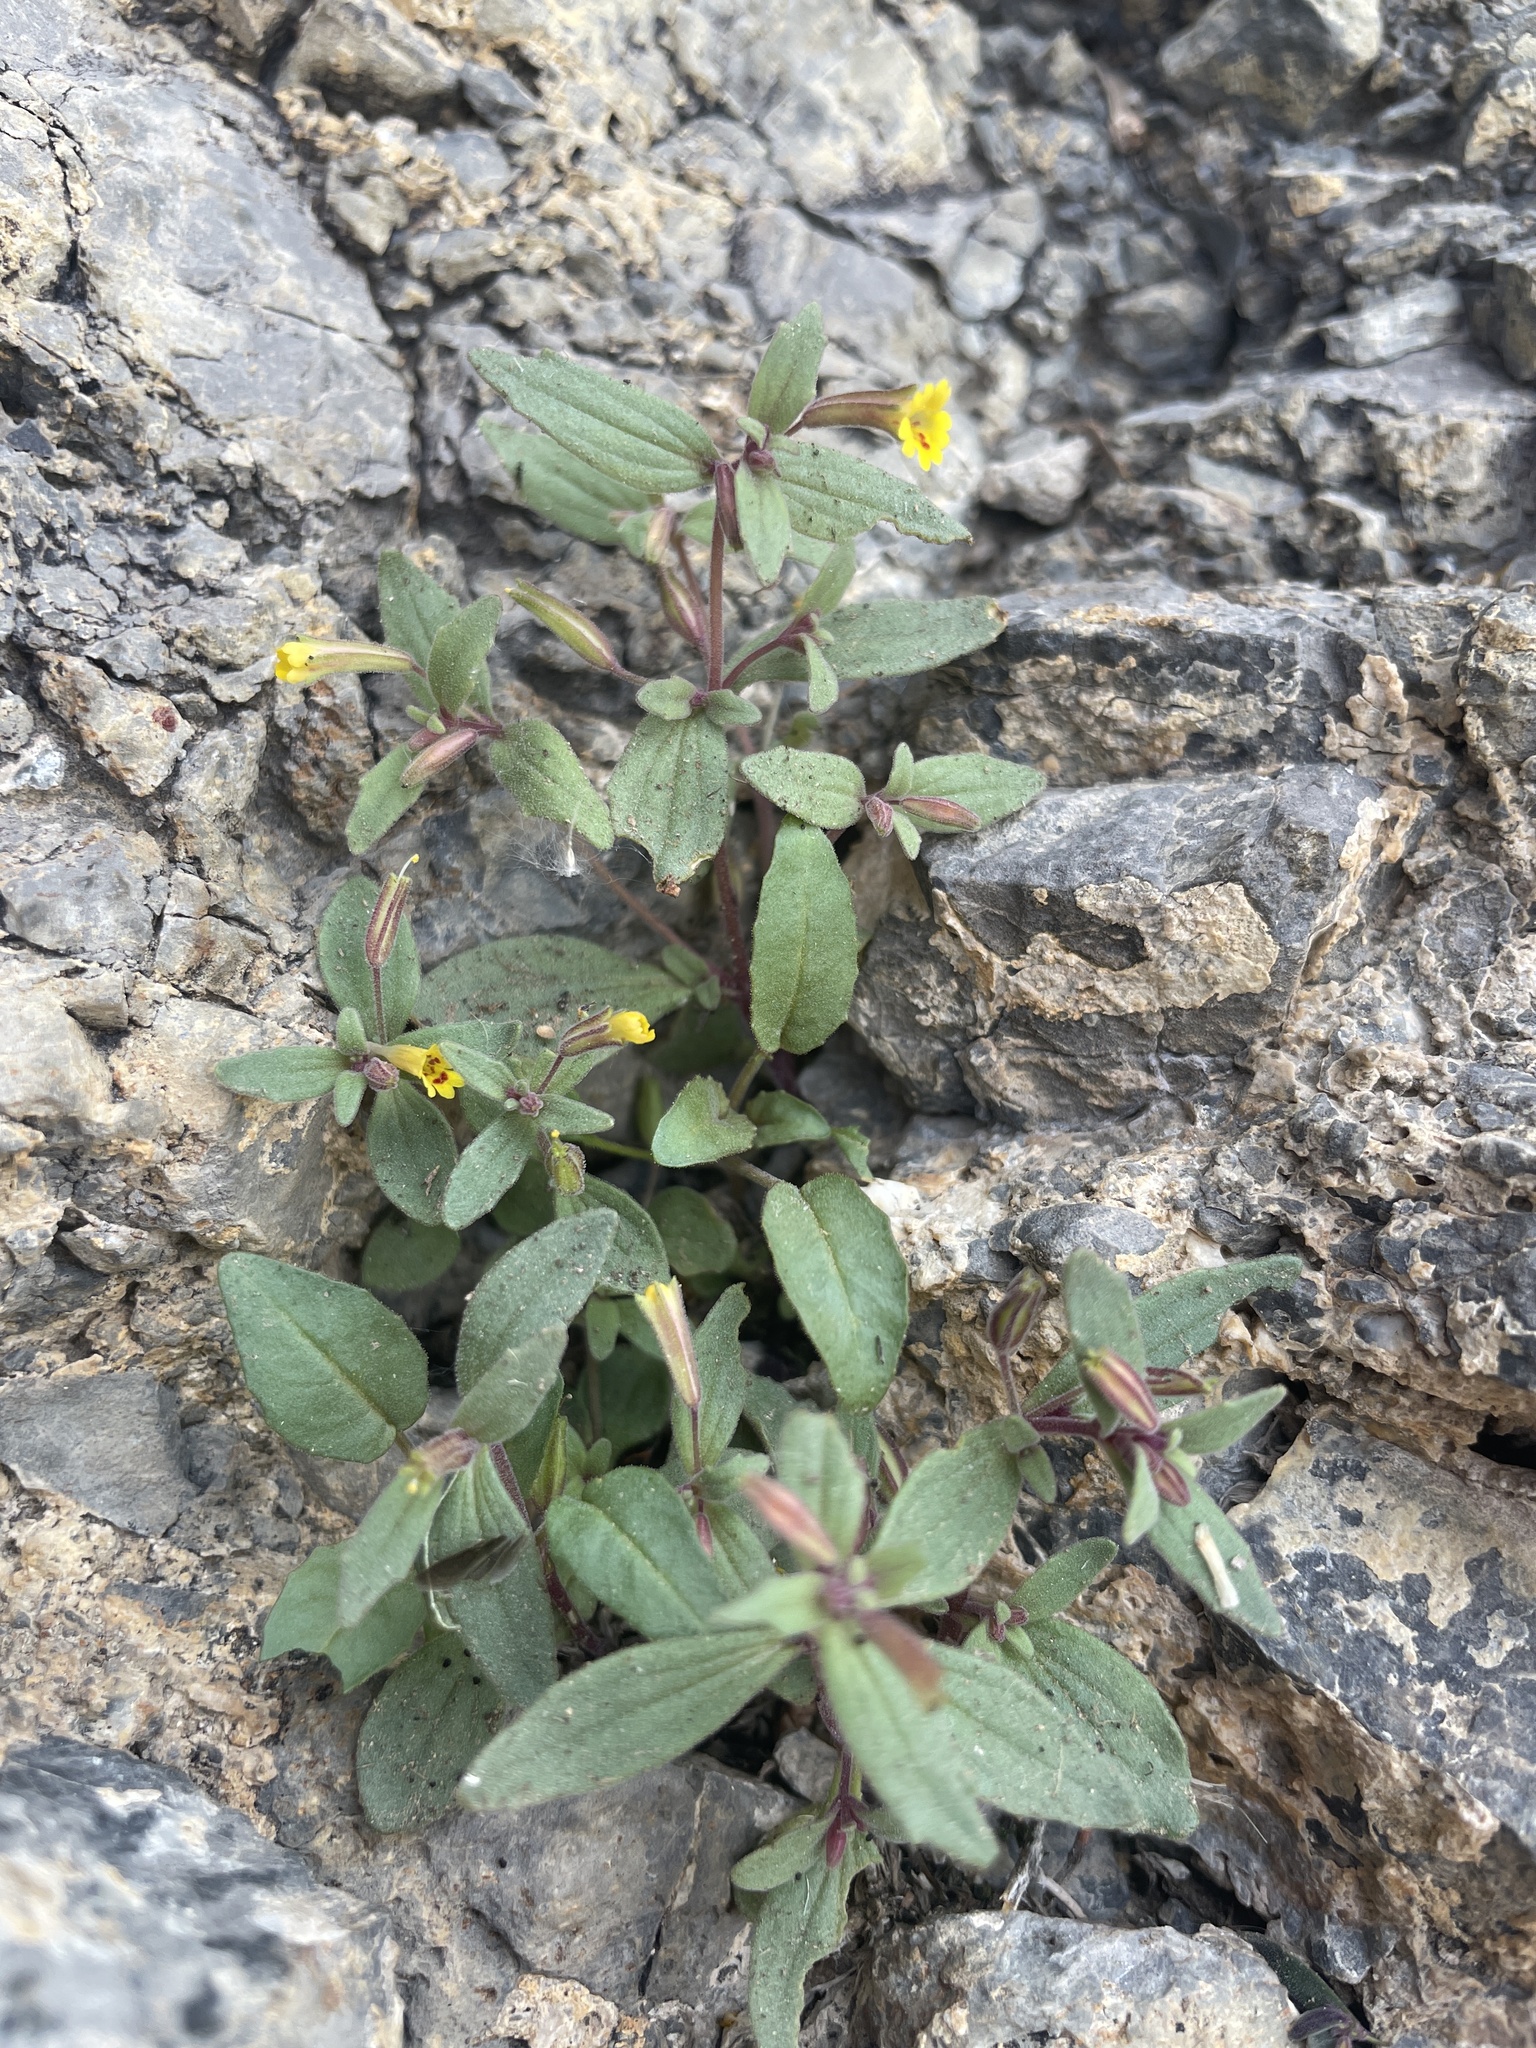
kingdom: Plantae
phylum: Tracheophyta
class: Magnoliopsida
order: Lamiales
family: Phrymaceae
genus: Erythranthe
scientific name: Erythranthe rubella
